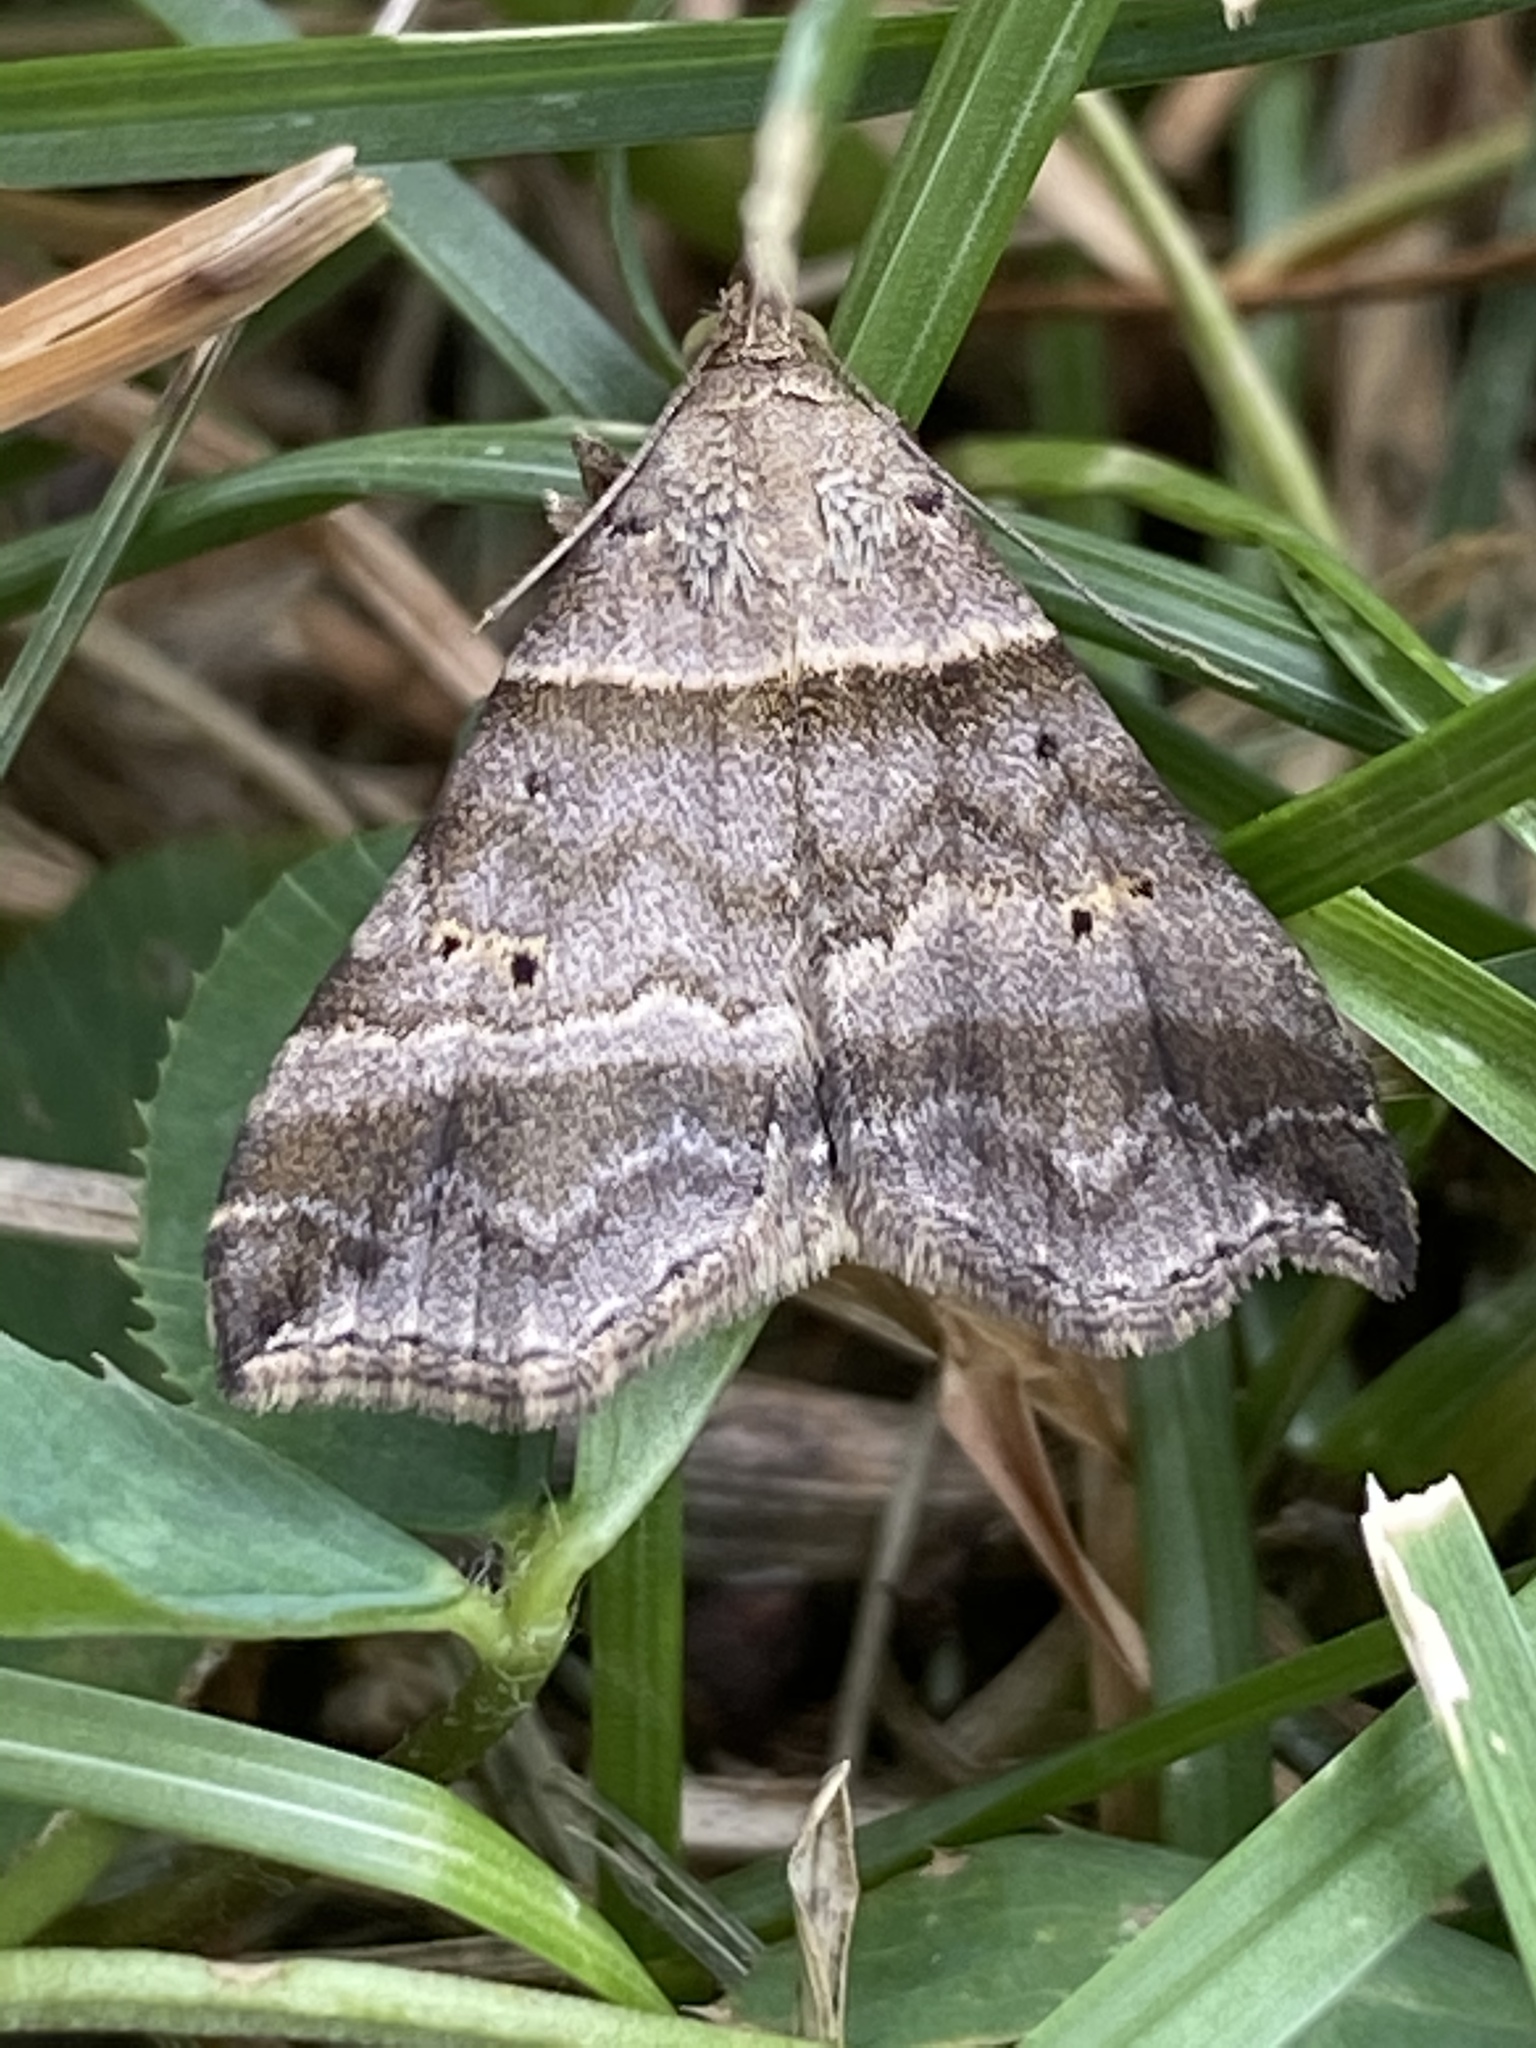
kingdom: Animalia
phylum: Arthropoda
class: Insecta
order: Lepidoptera
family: Erebidae
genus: Phaeolita
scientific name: Phaeolita pyramusalis
